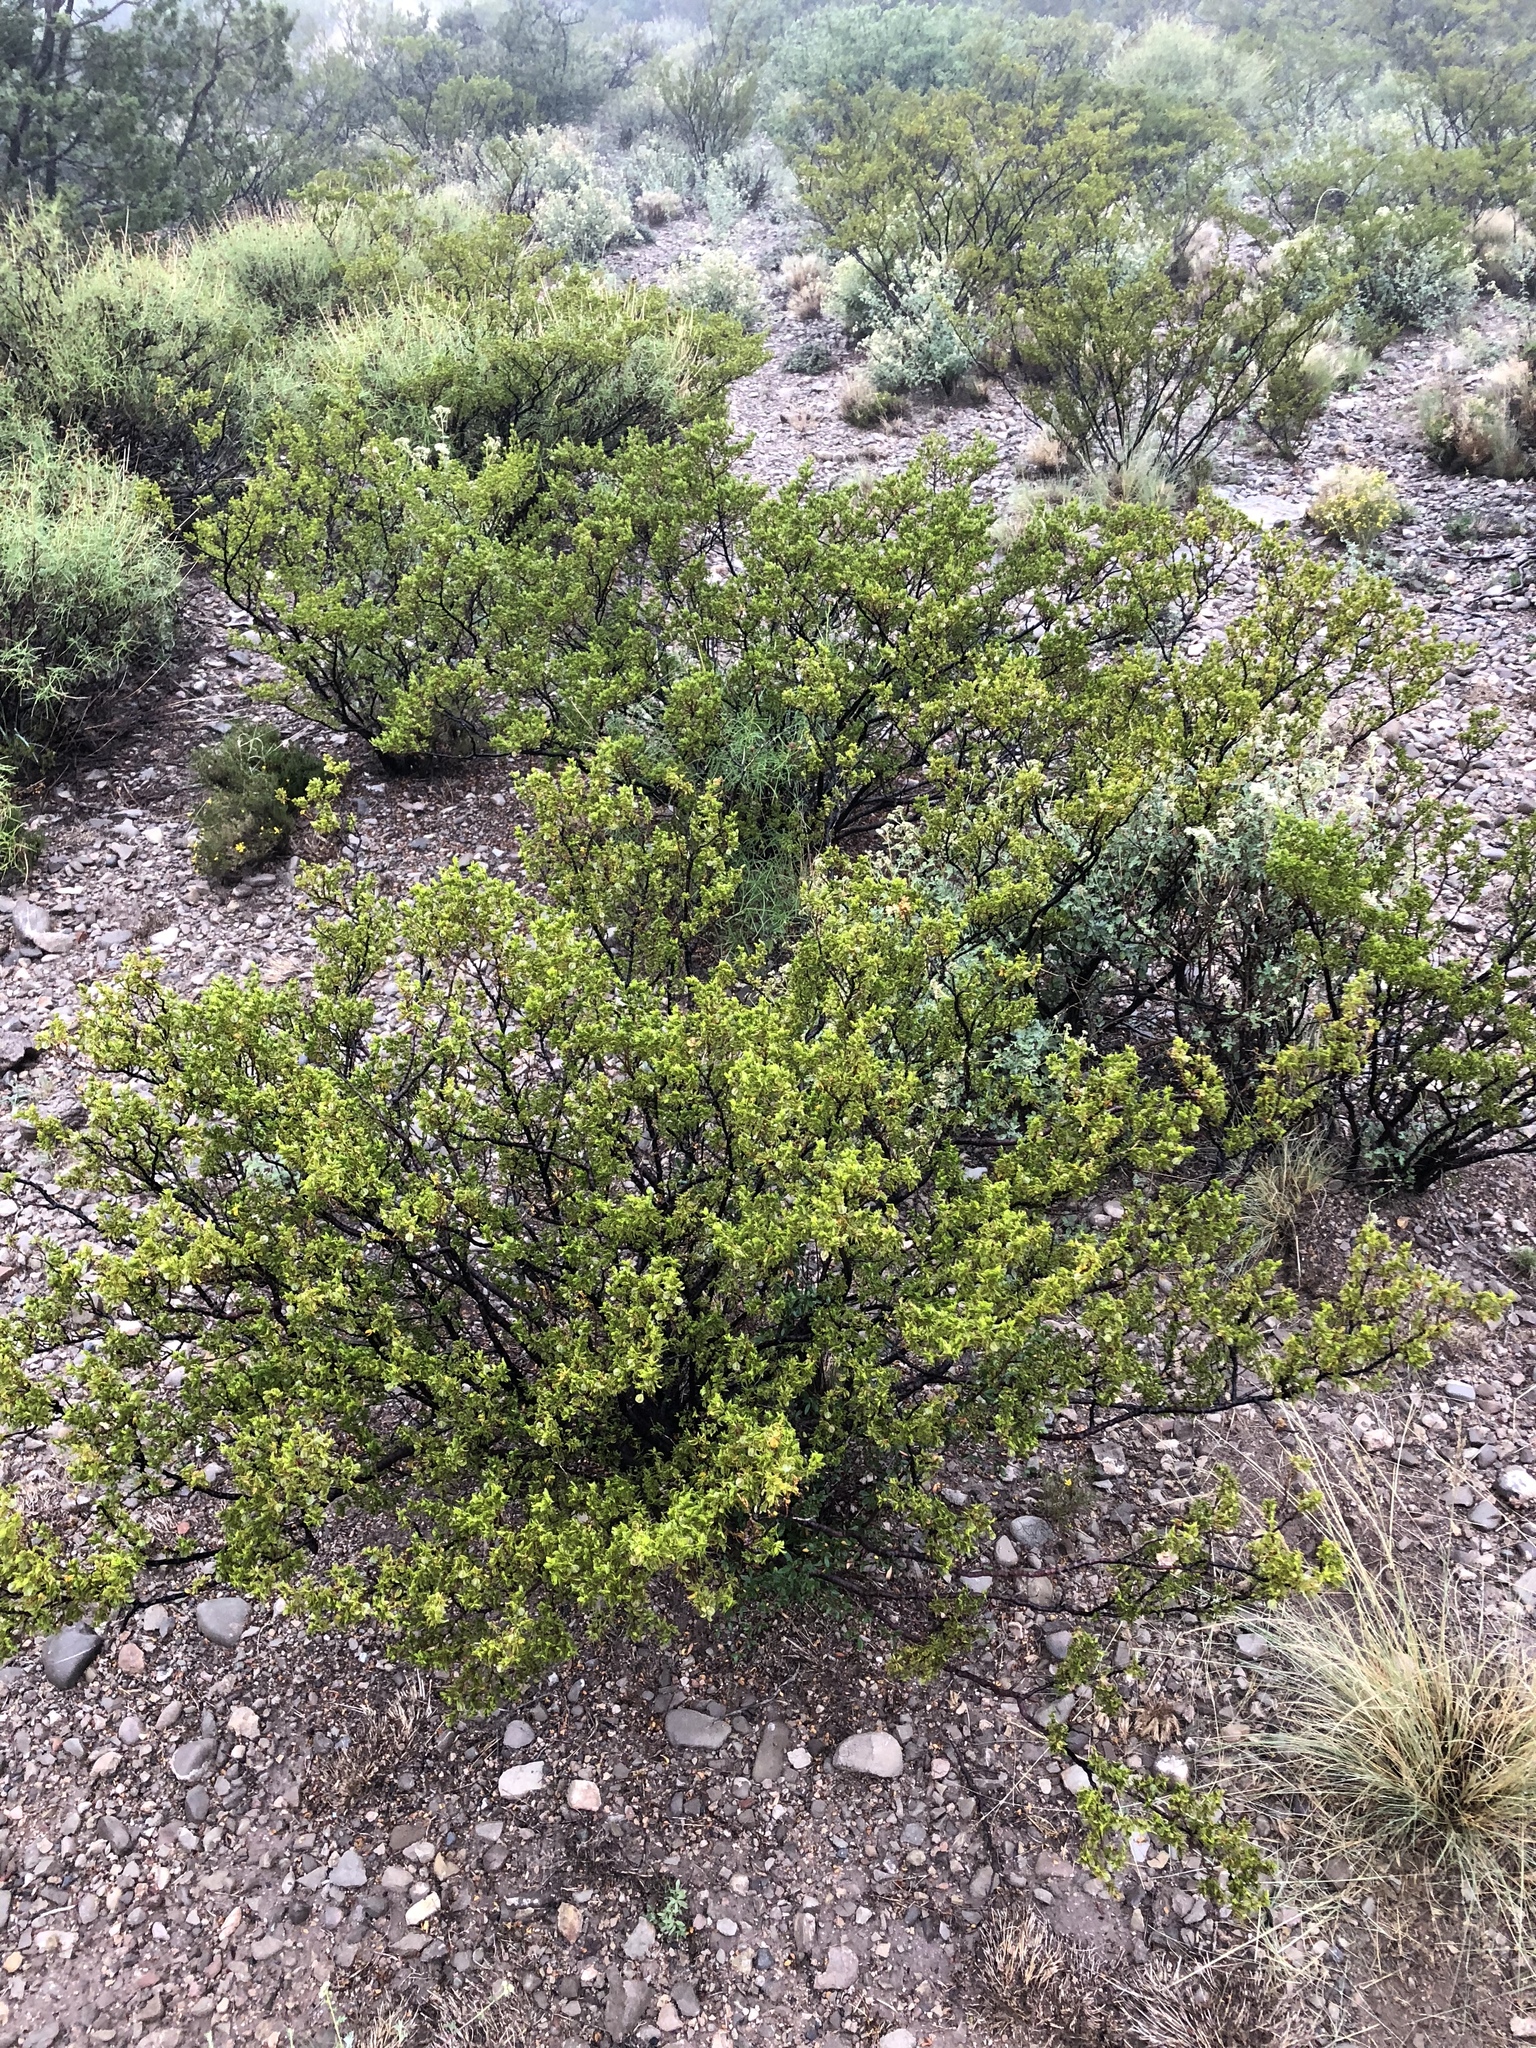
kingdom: Plantae
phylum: Tracheophyta
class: Magnoliopsida
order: Zygophyllales
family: Zygophyllaceae
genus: Larrea
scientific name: Larrea tridentata
